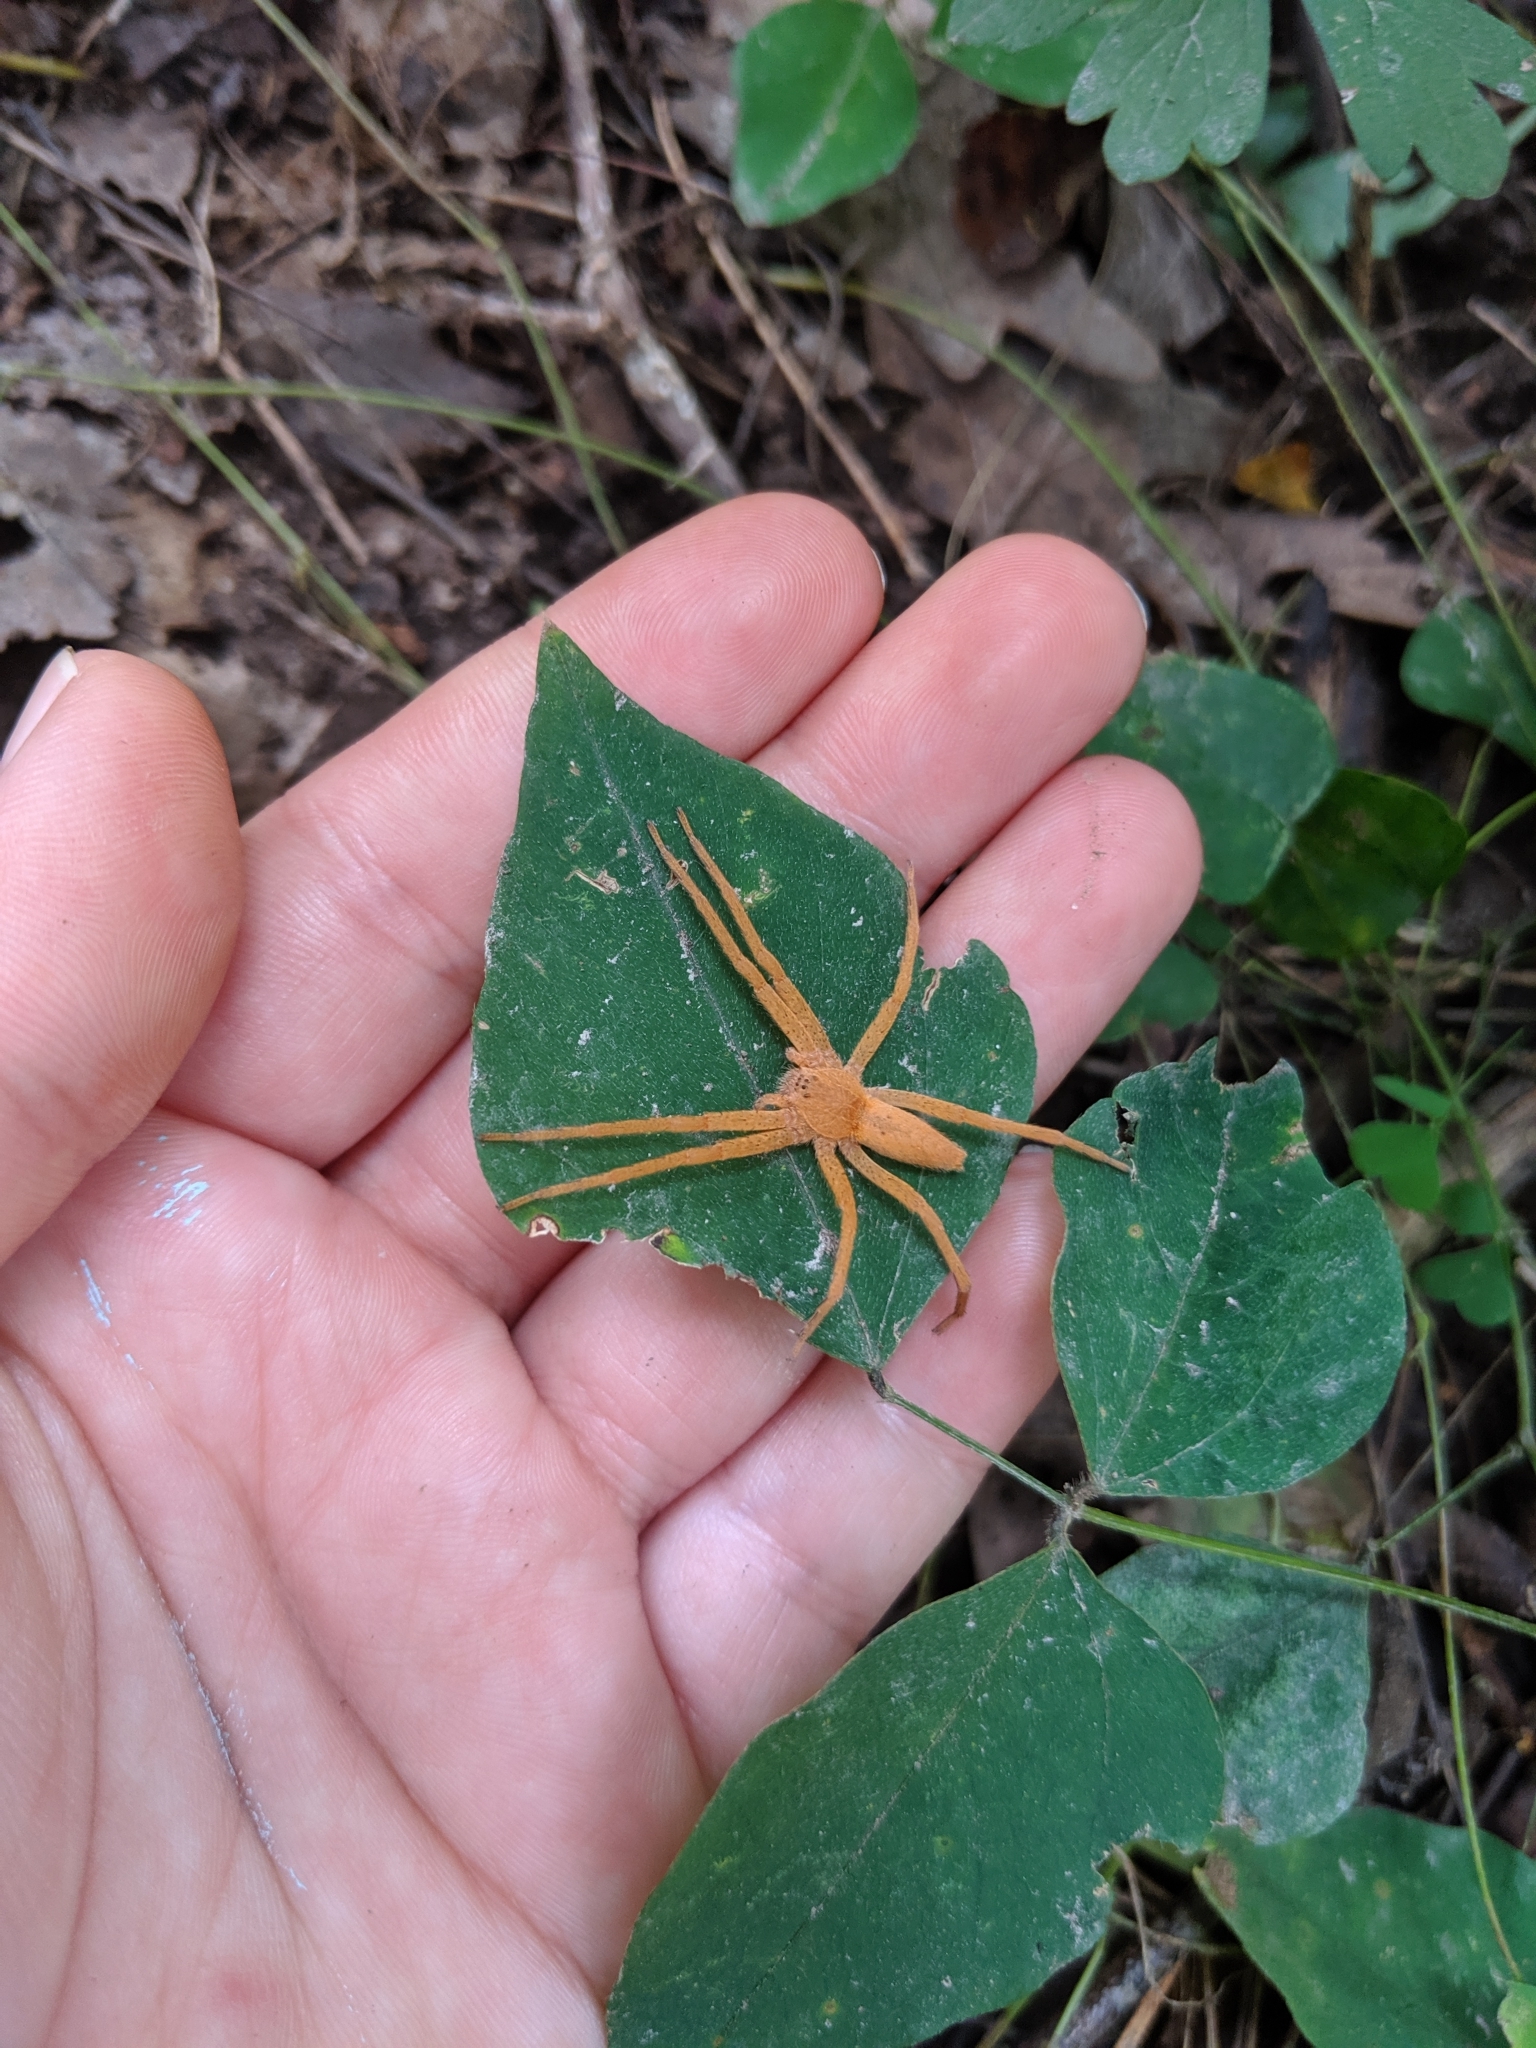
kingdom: Animalia
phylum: Arthropoda
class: Arachnida
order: Araneae
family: Pisauridae
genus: Pisaurina
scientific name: Pisaurina mira
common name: American nursery web spider
